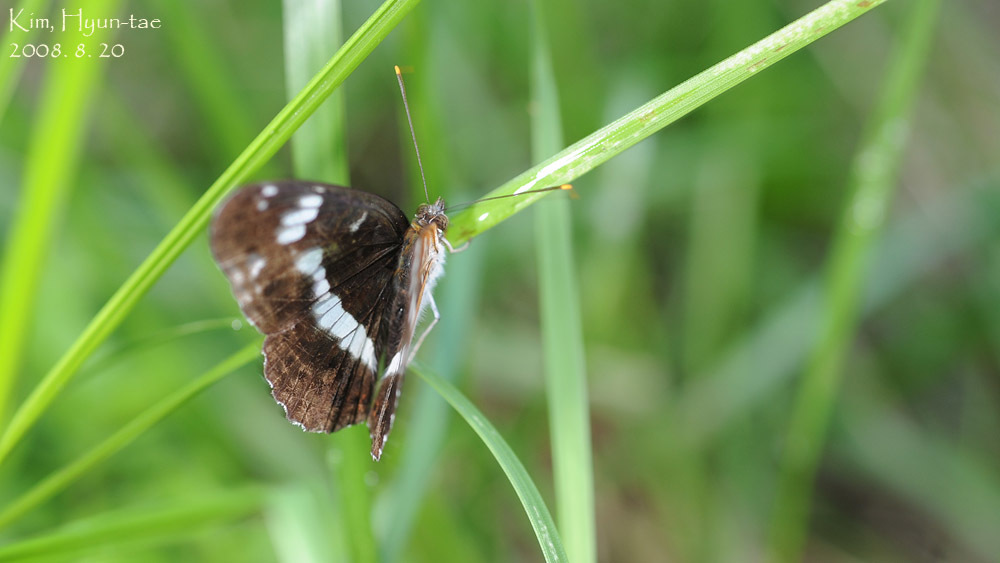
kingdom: Animalia
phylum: Arthropoda
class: Insecta
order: Lepidoptera
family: Nymphalidae
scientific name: Nymphalidae
